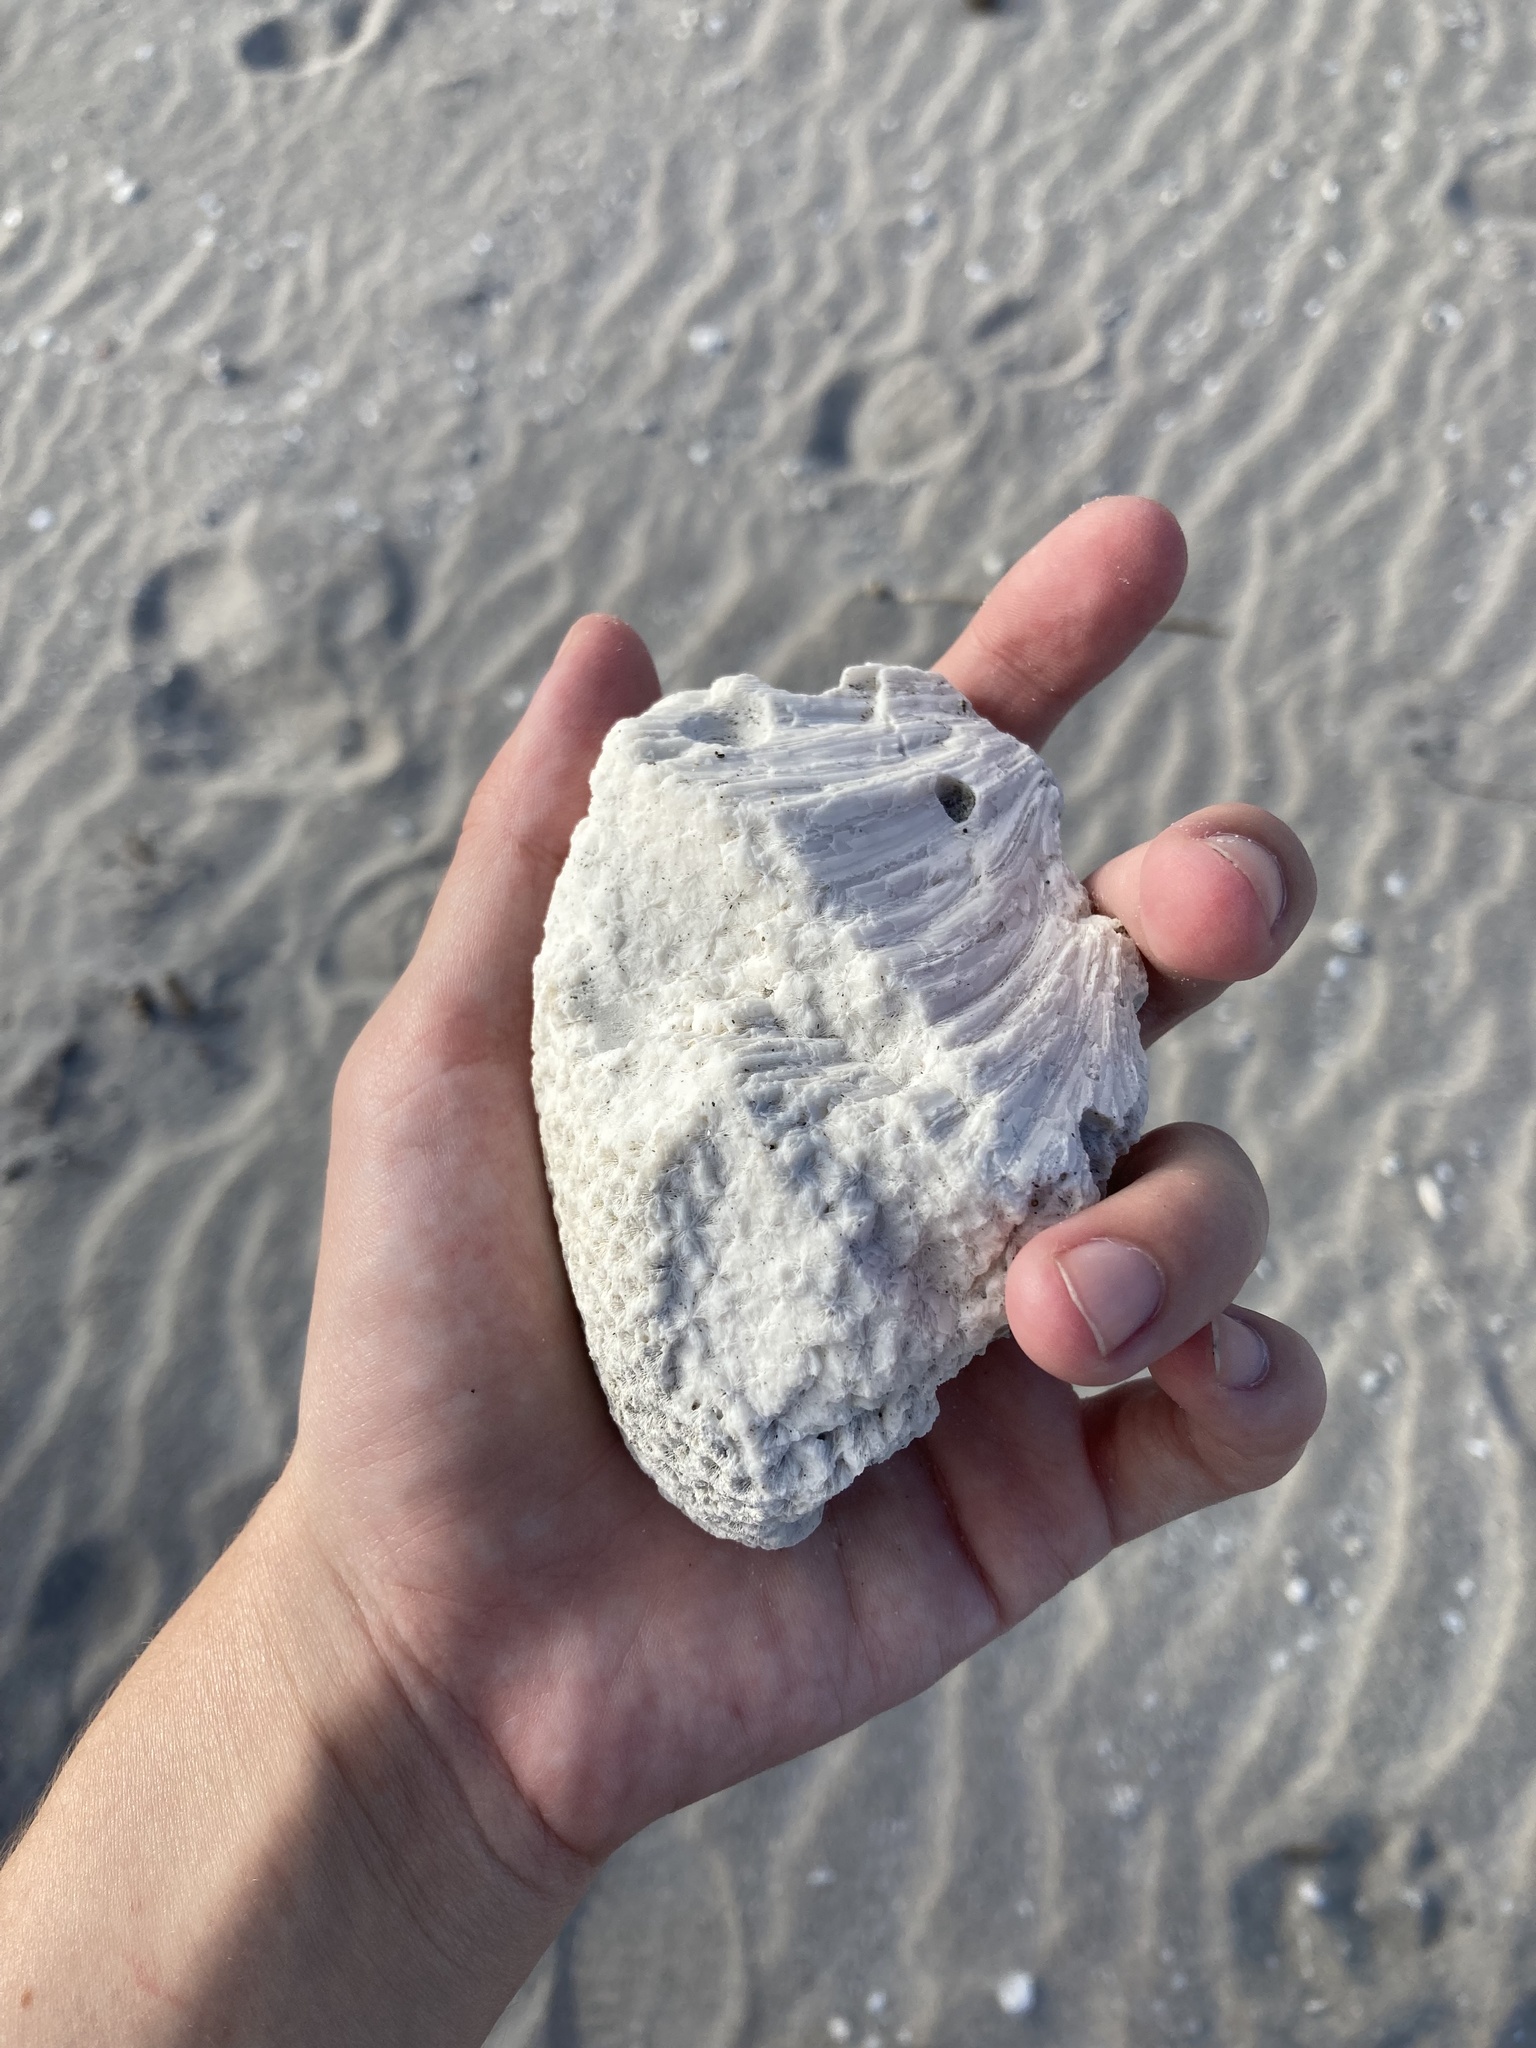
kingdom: Animalia
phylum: Cnidaria
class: Anthozoa
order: Scleractinia
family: Rhizangiidae
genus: Siderastrea
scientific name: Siderastrea siderea
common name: Massive starlet coral
